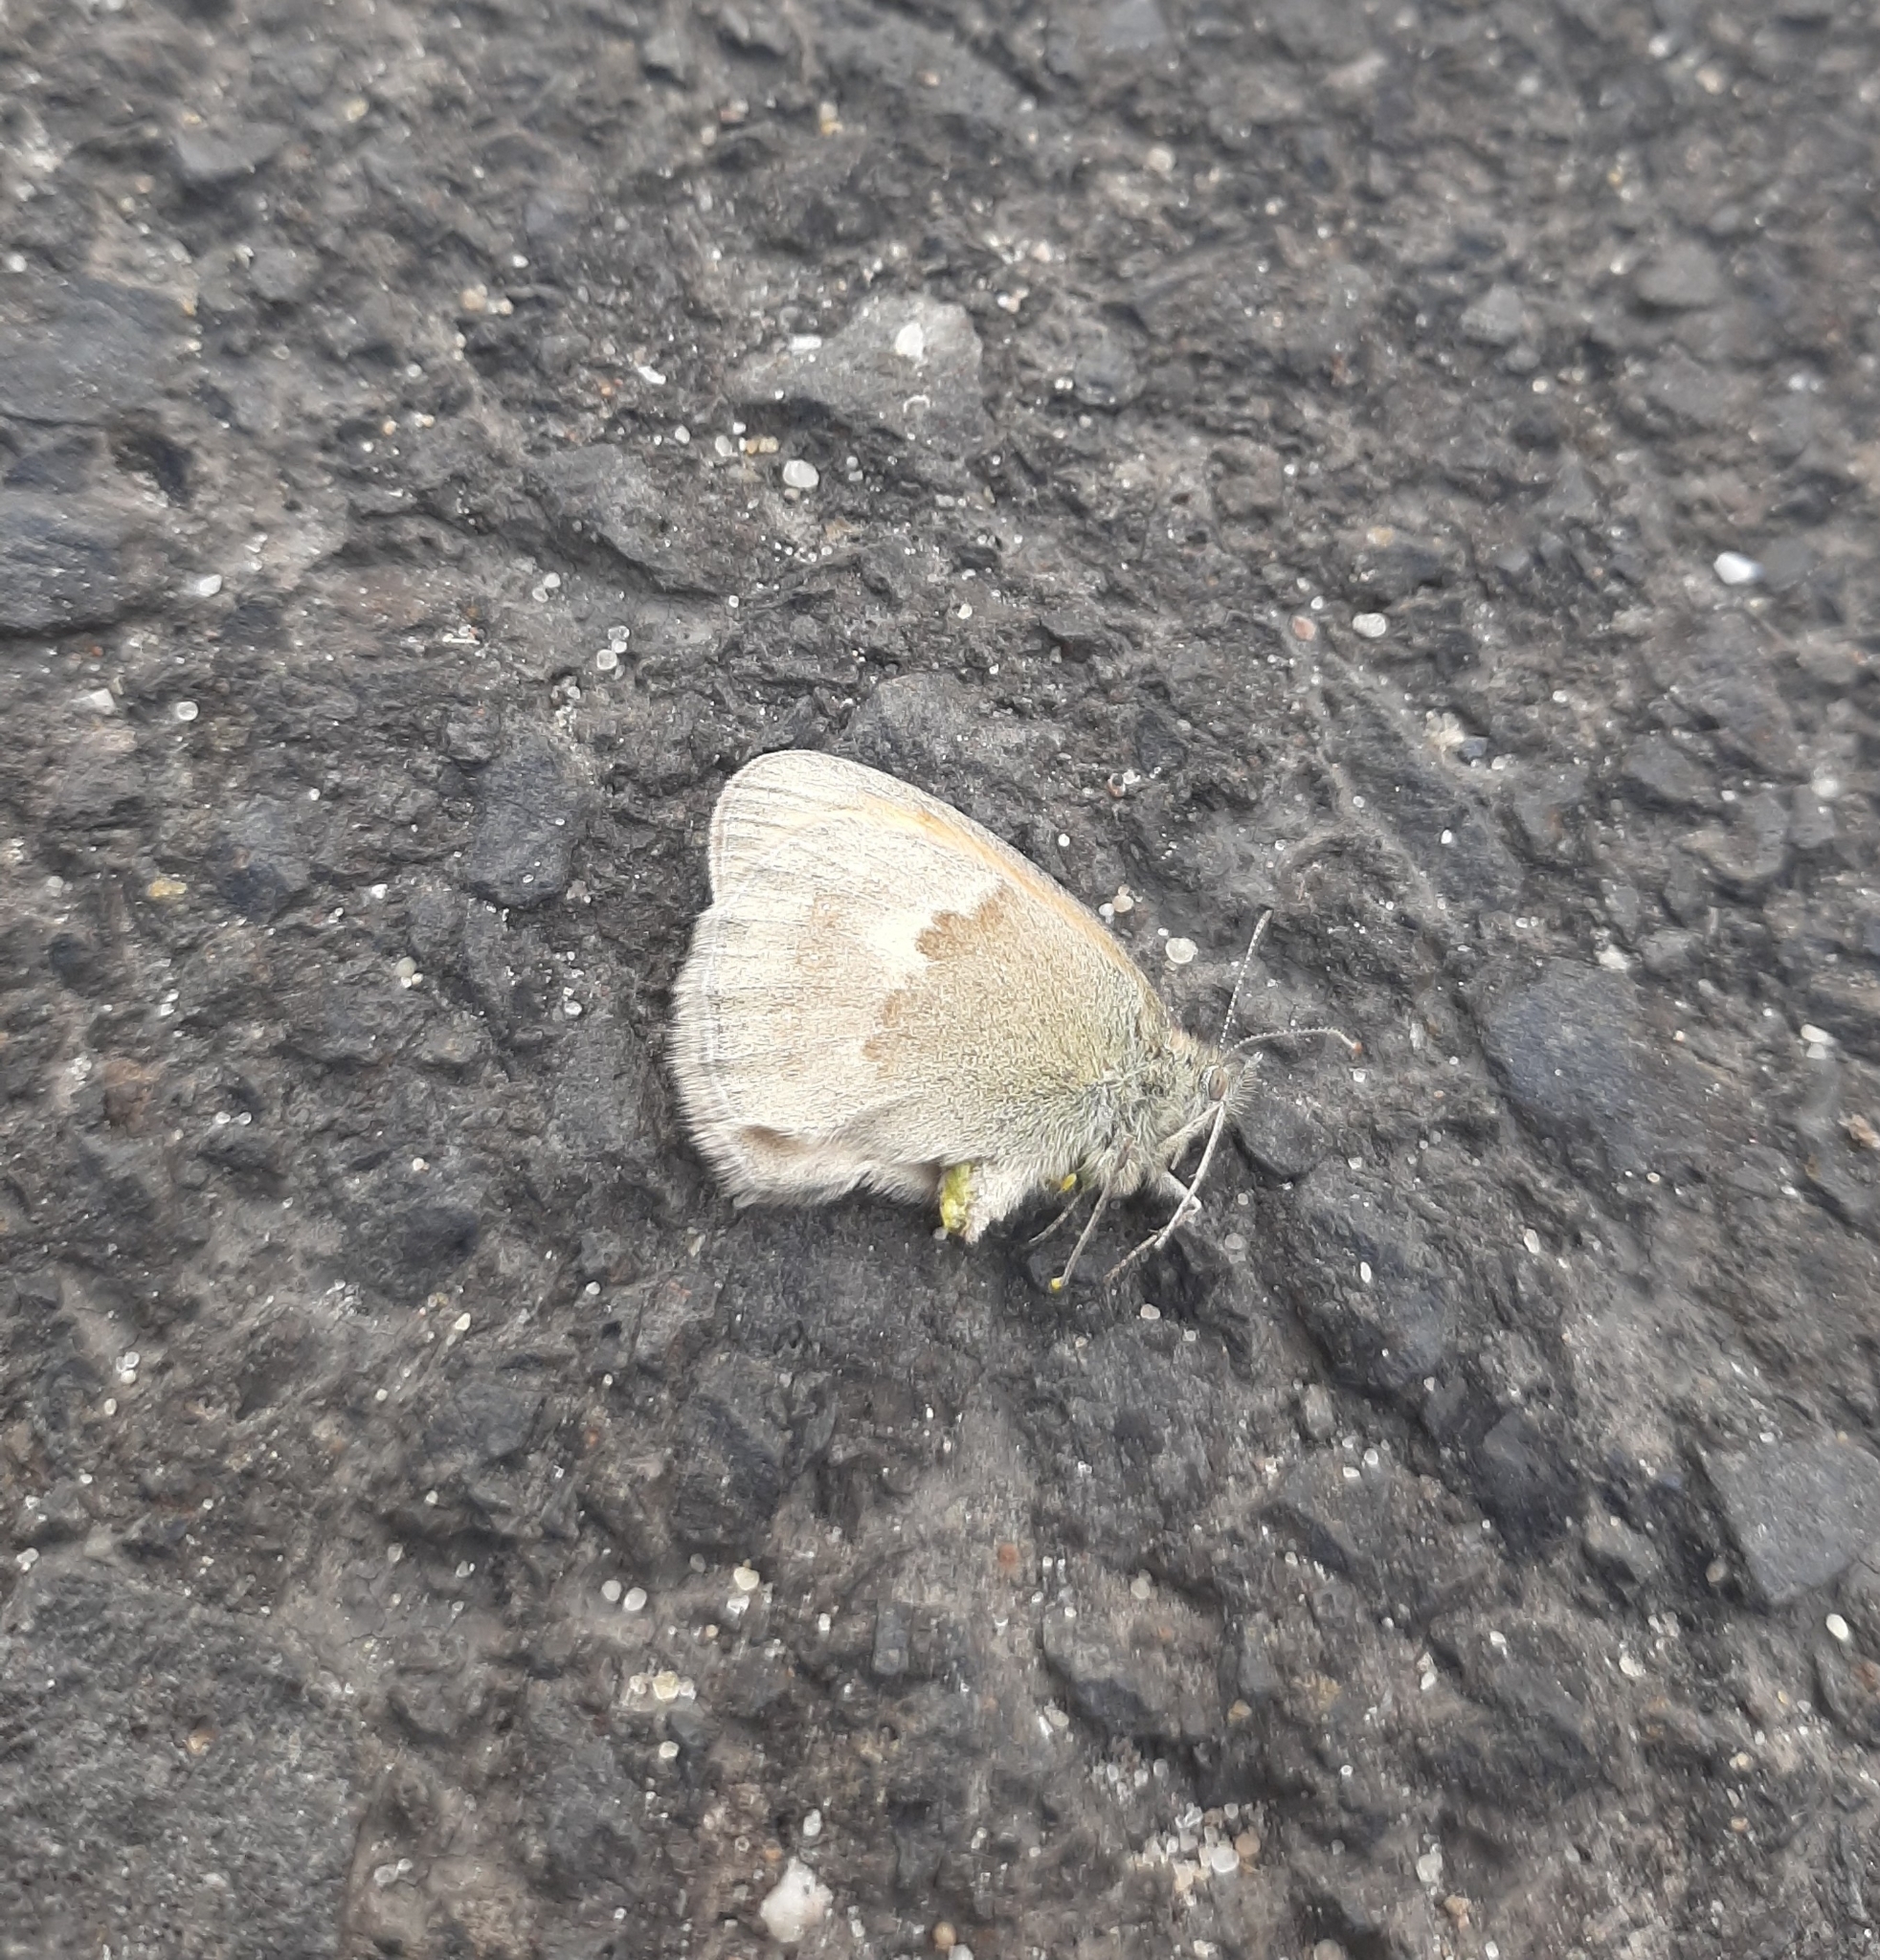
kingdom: Animalia
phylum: Arthropoda
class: Insecta
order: Lepidoptera
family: Nymphalidae
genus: Coenonympha
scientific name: Coenonympha pamphilus
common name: Small heath
